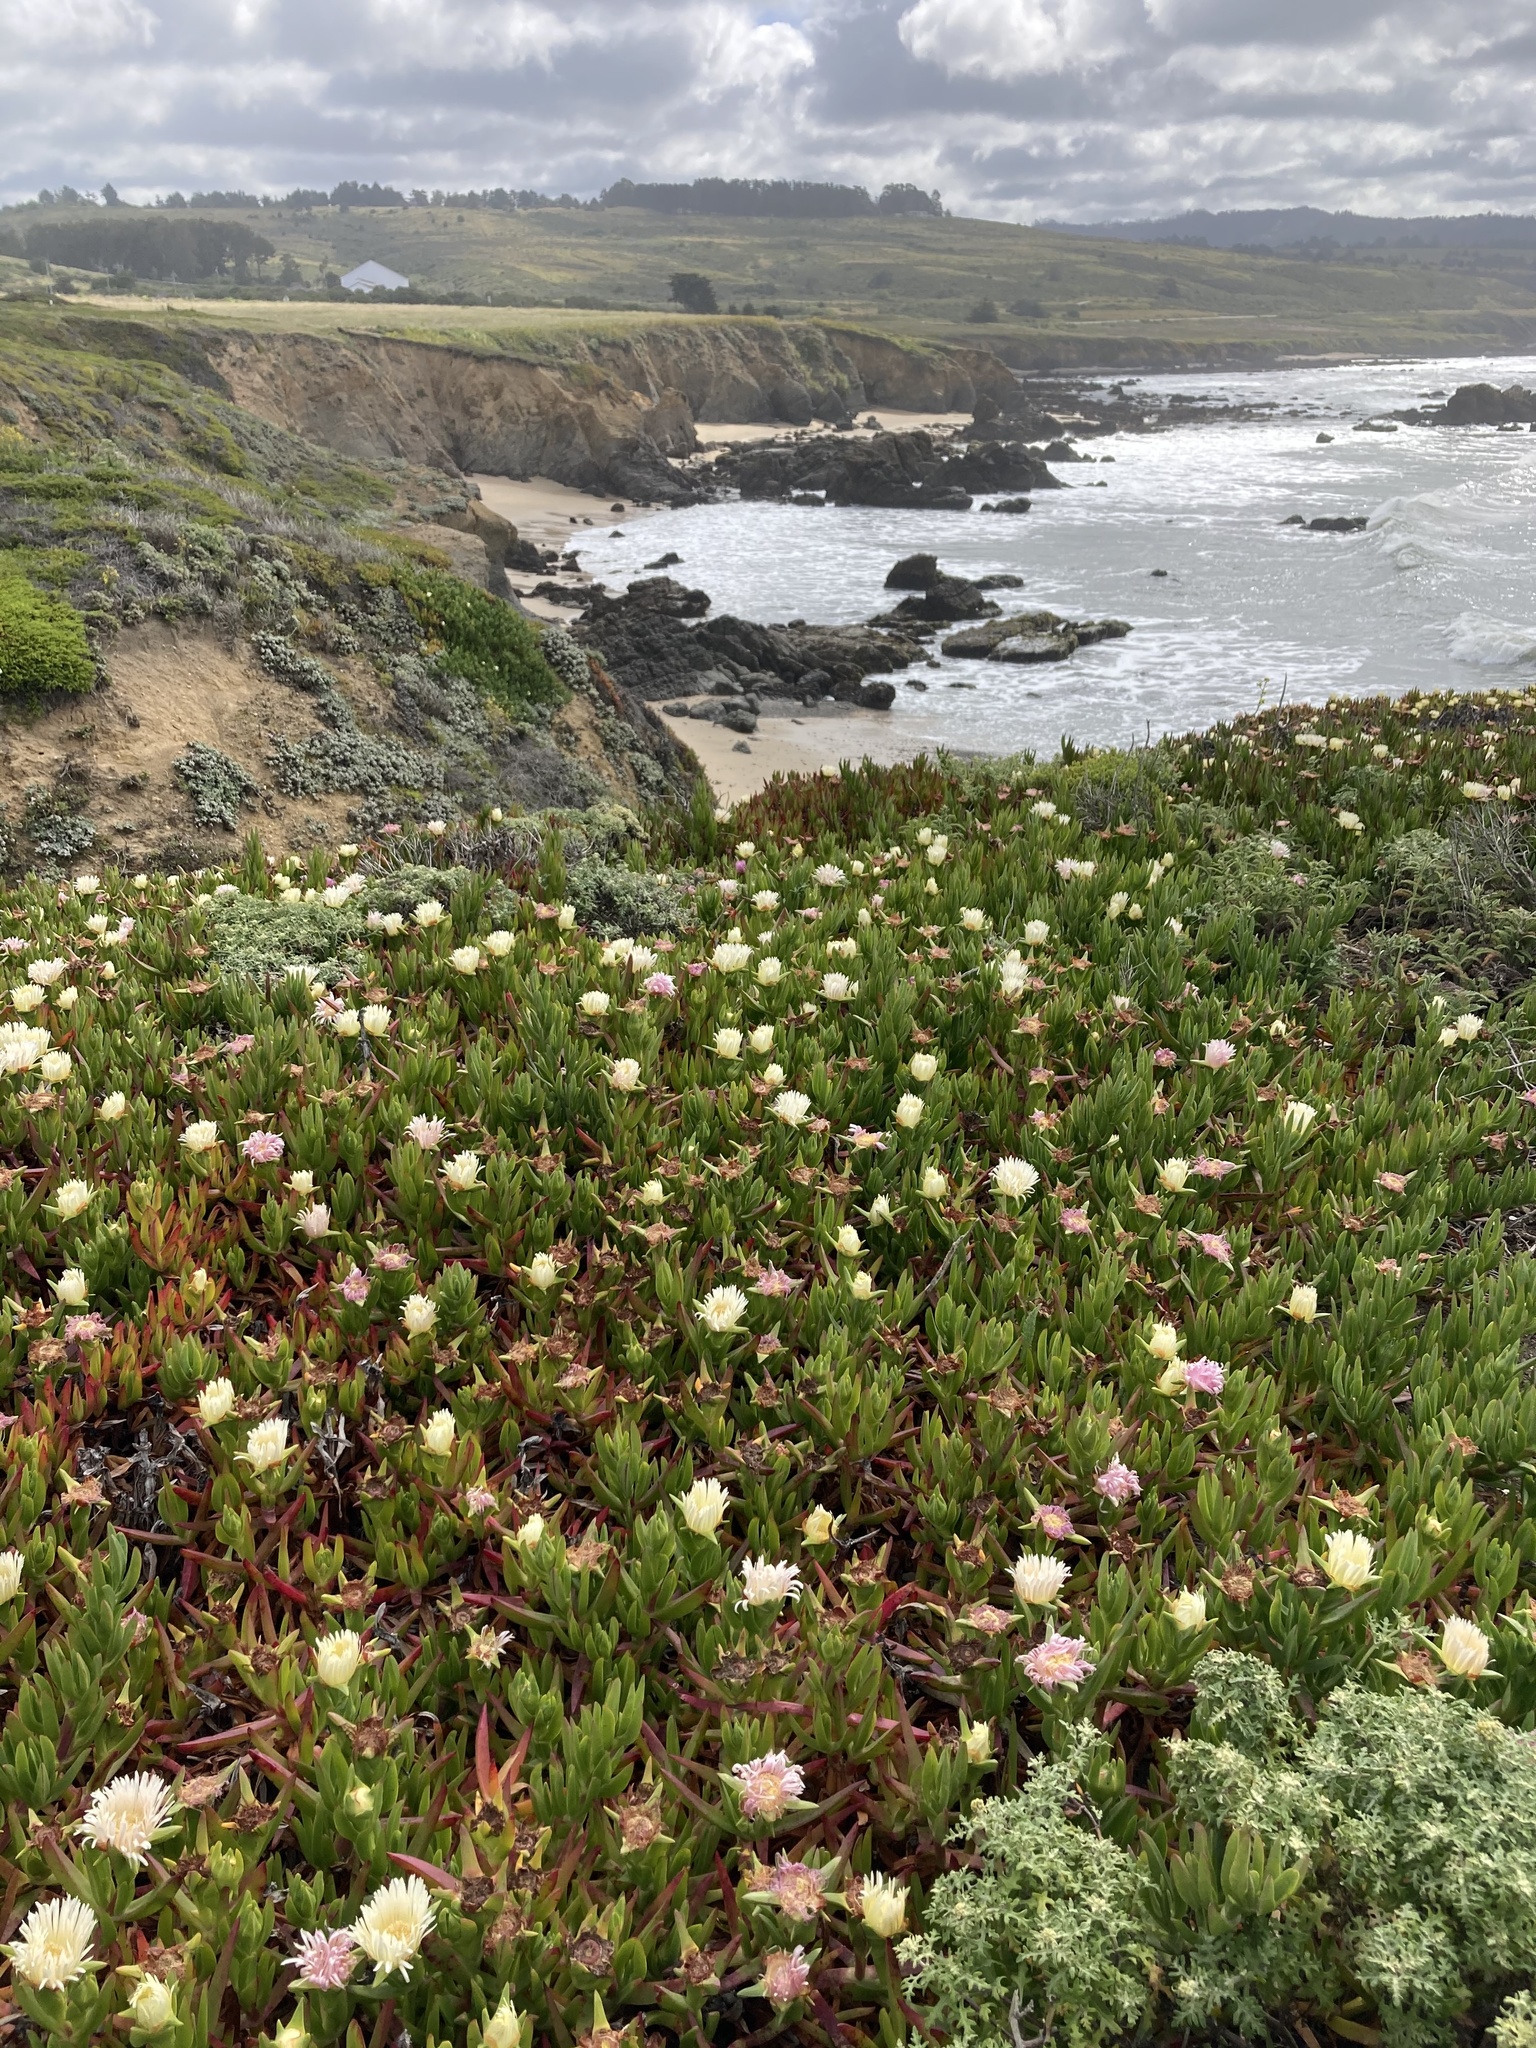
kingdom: Plantae
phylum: Tracheophyta
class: Magnoliopsida
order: Caryophyllales
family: Aizoaceae
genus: Carpobrotus
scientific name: Carpobrotus edulis
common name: Hottentot-fig
